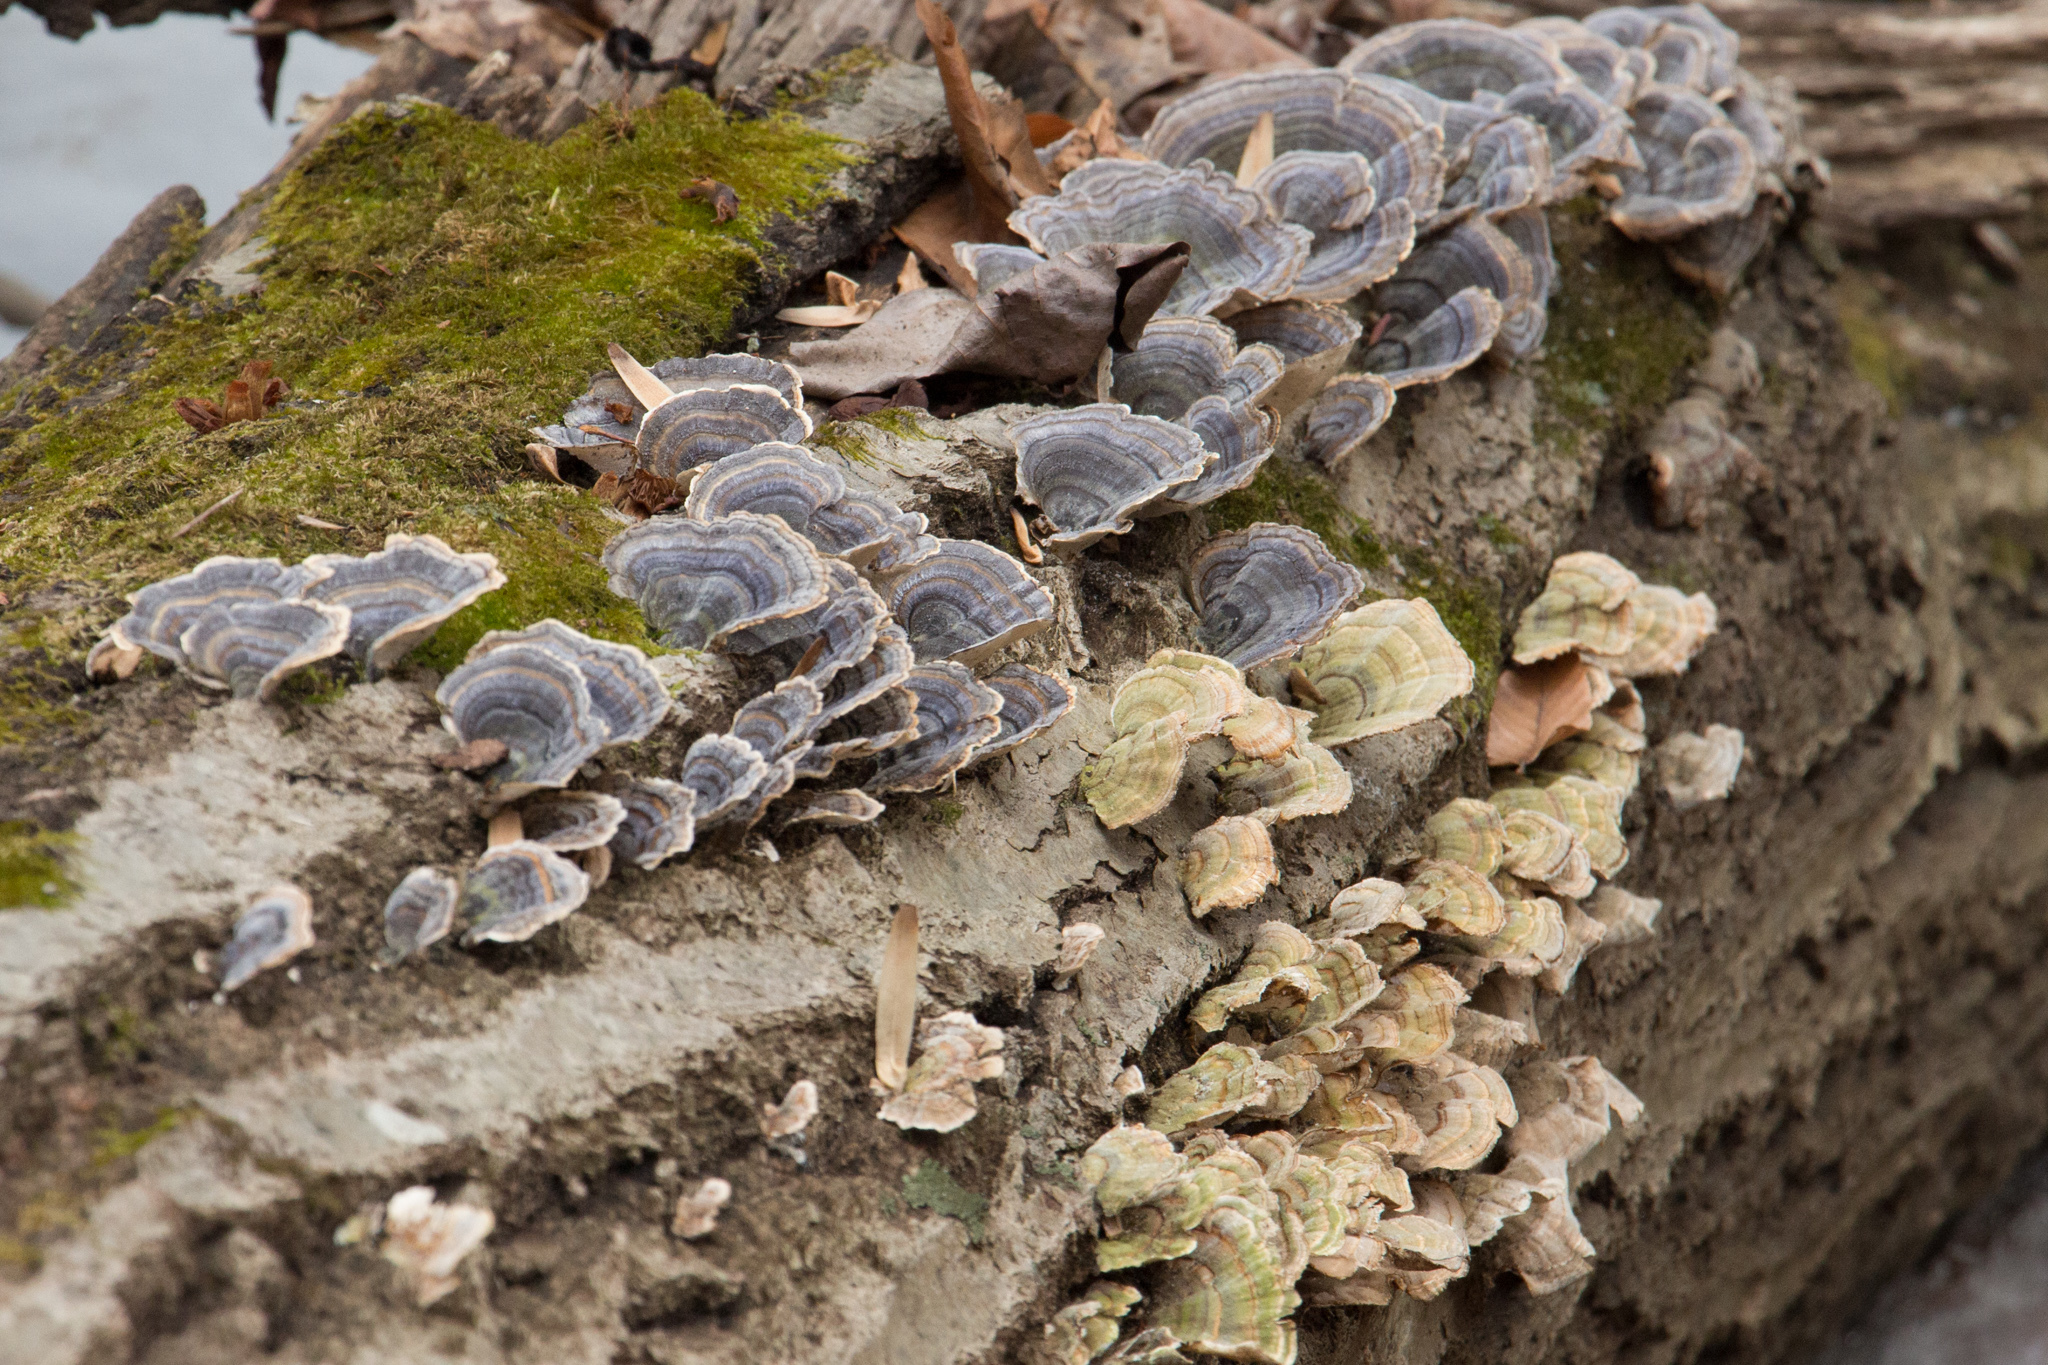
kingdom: Fungi
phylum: Basidiomycota
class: Agaricomycetes
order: Polyporales
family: Polyporaceae
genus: Trametes
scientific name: Trametes versicolor
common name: Turkeytail
